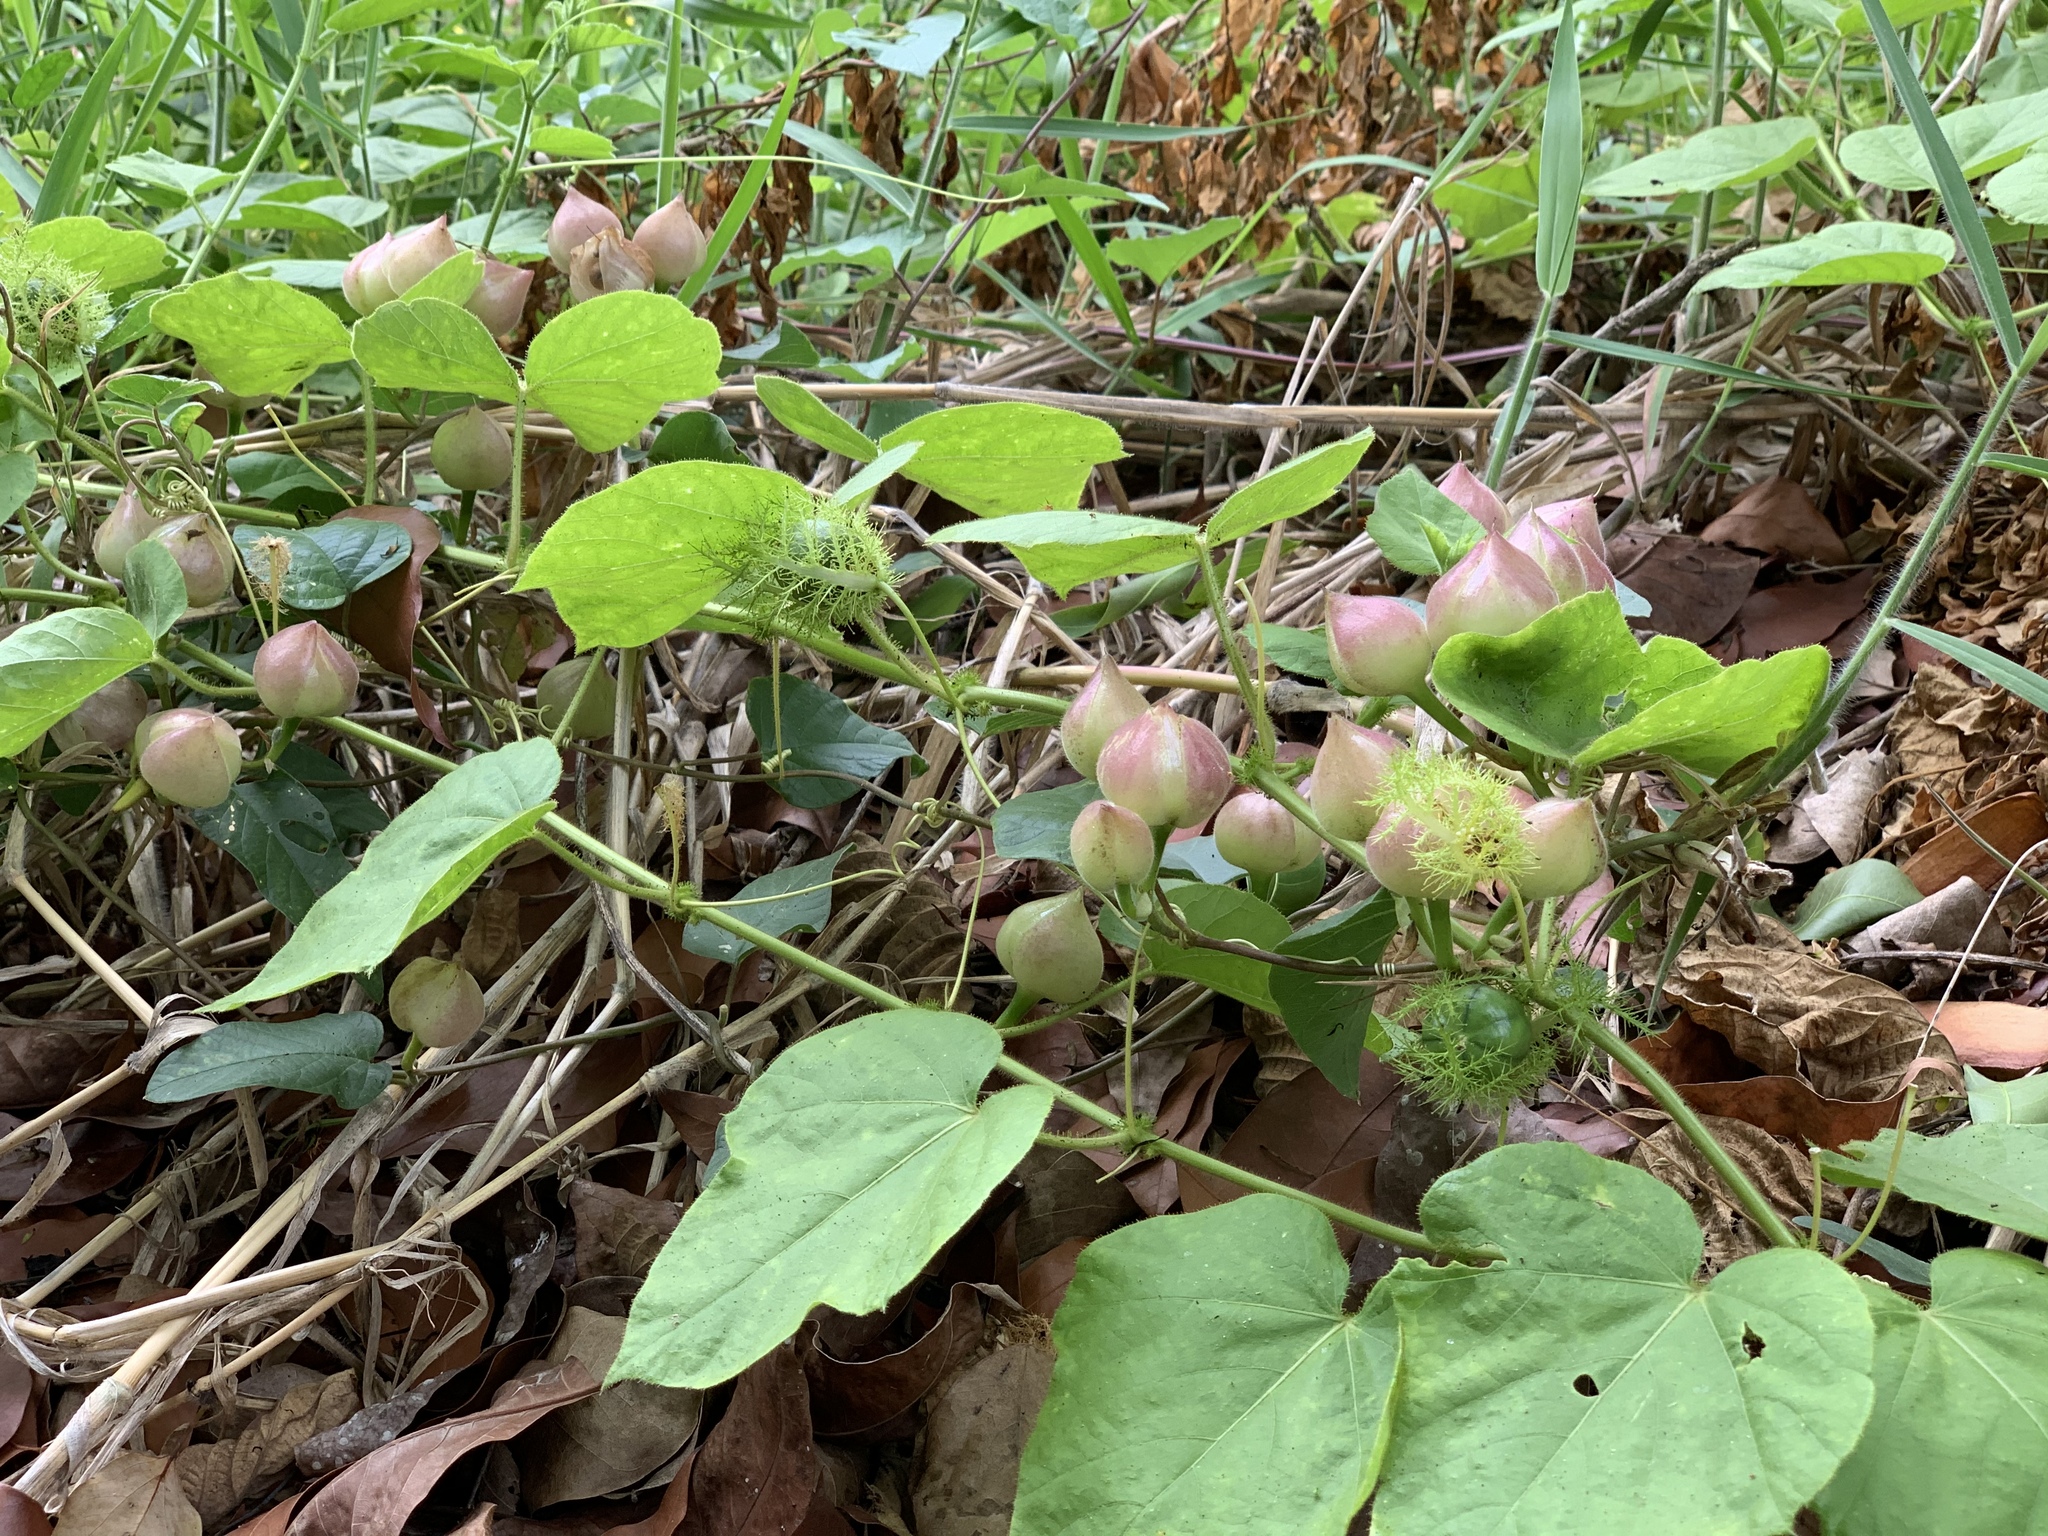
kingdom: Plantae
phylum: Tracheophyta
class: Magnoliopsida
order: Solanales
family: Convolvulaceae
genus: Operculina
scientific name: Operculina turpethum
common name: Transparent wood-rose
